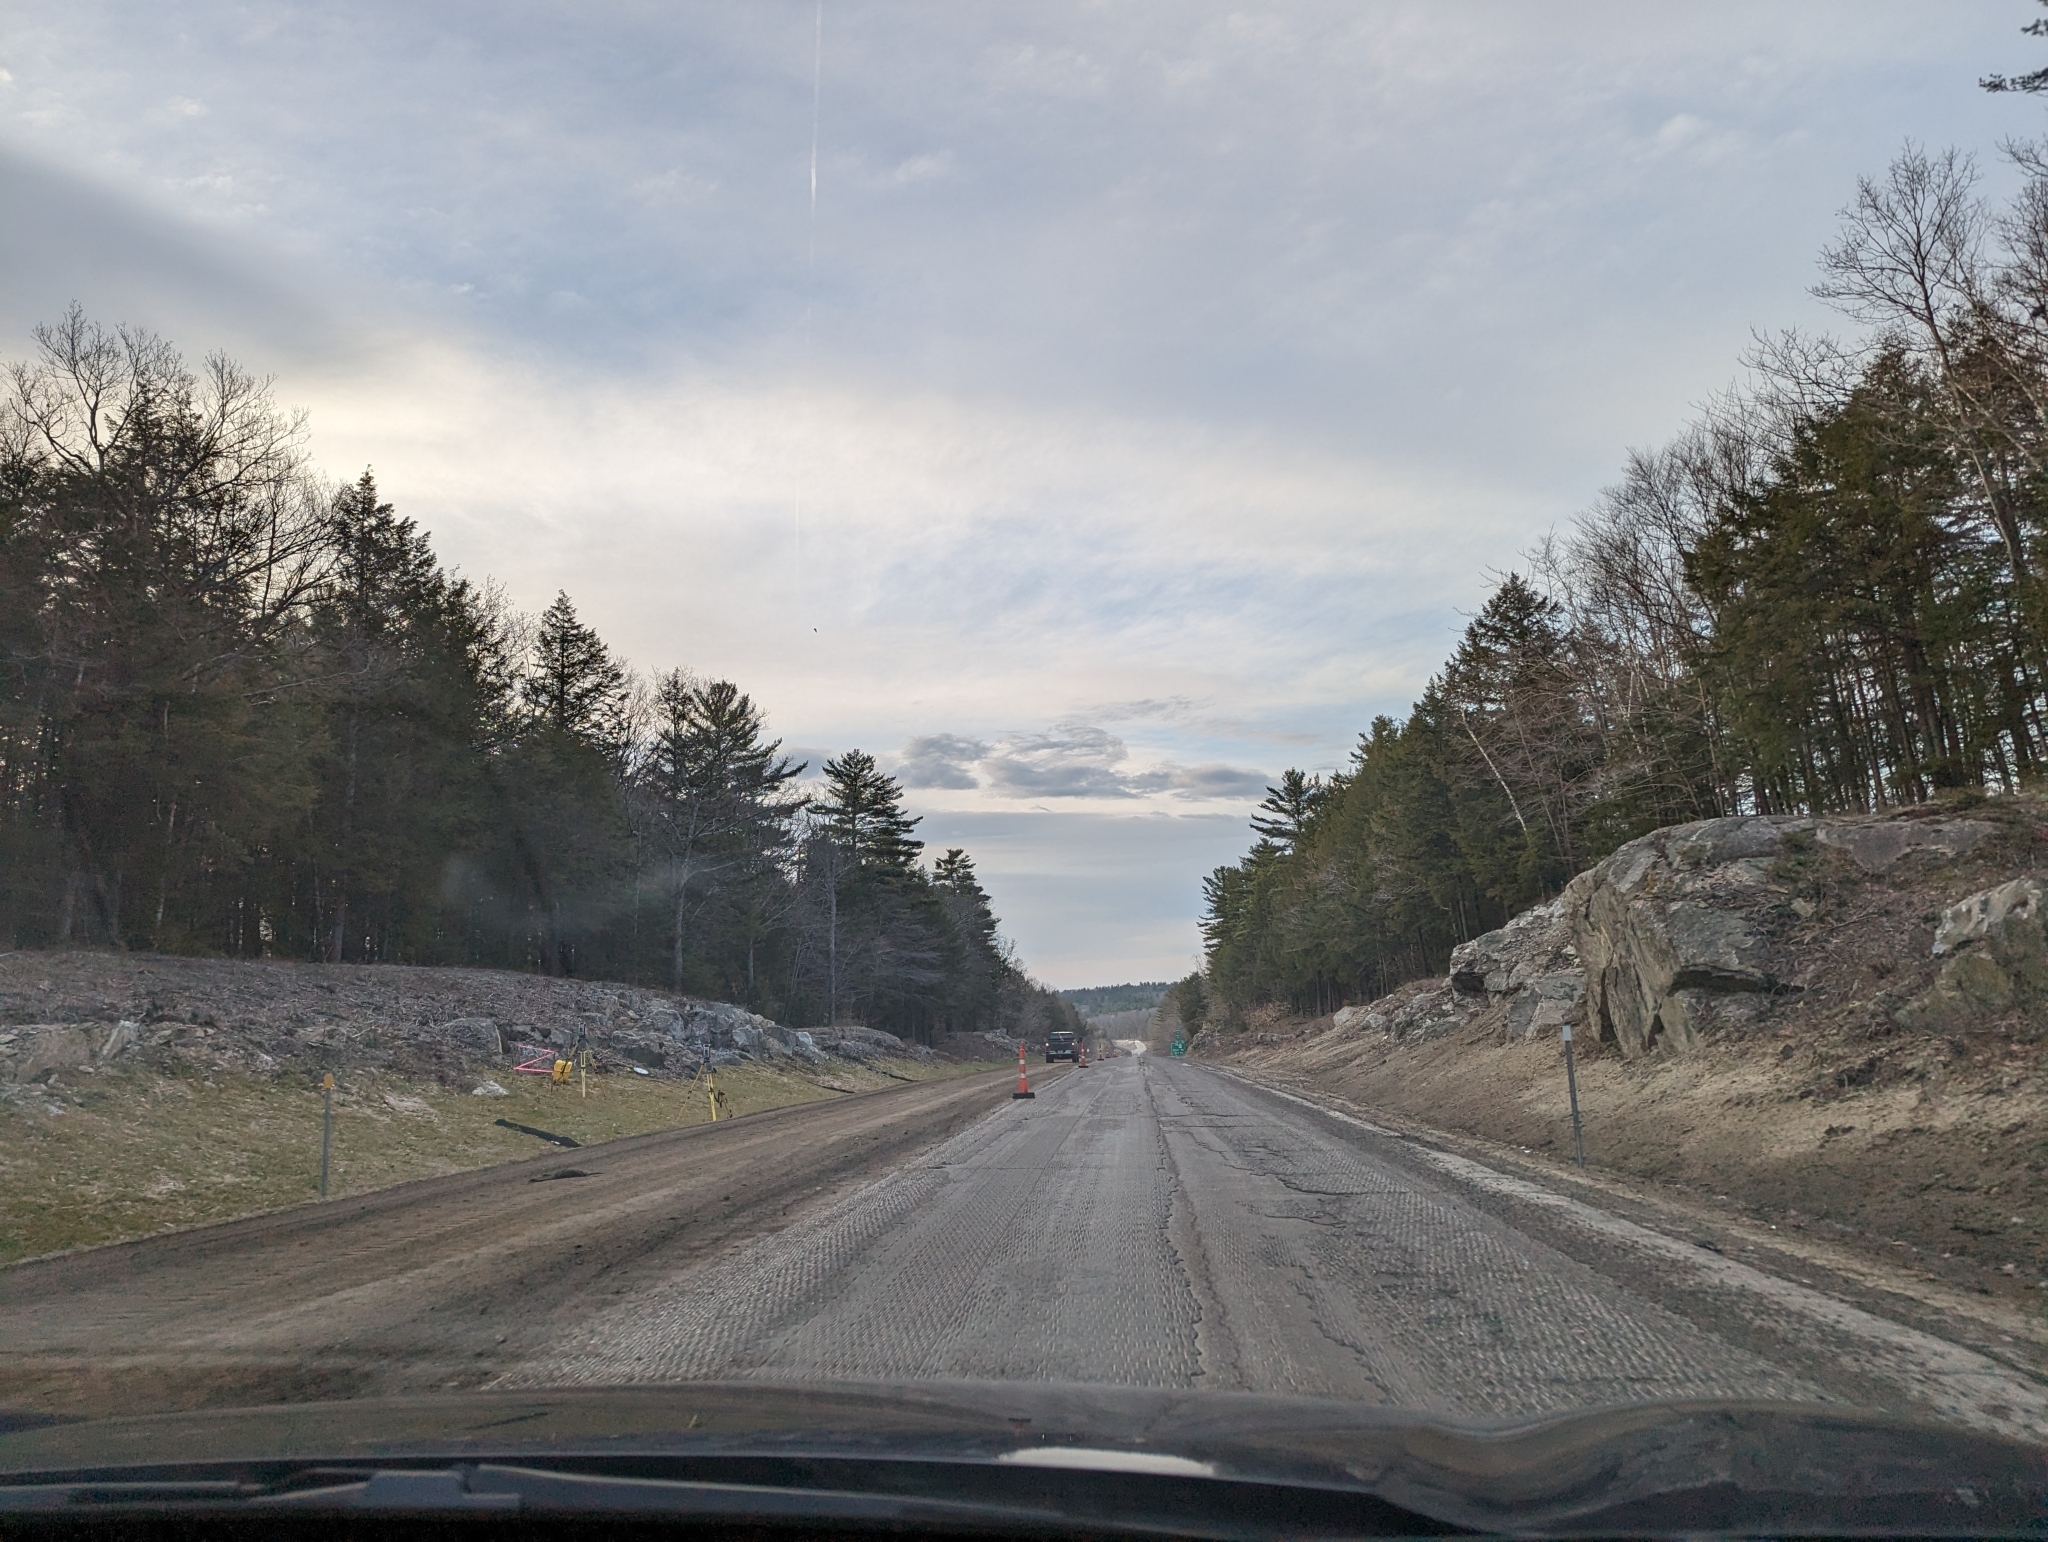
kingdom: Plantae
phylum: Tracheophyta
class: Pinopsida
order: Pinales
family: Pinaceae
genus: Pinus
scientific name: Pinus strobus
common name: Weymouth pine
